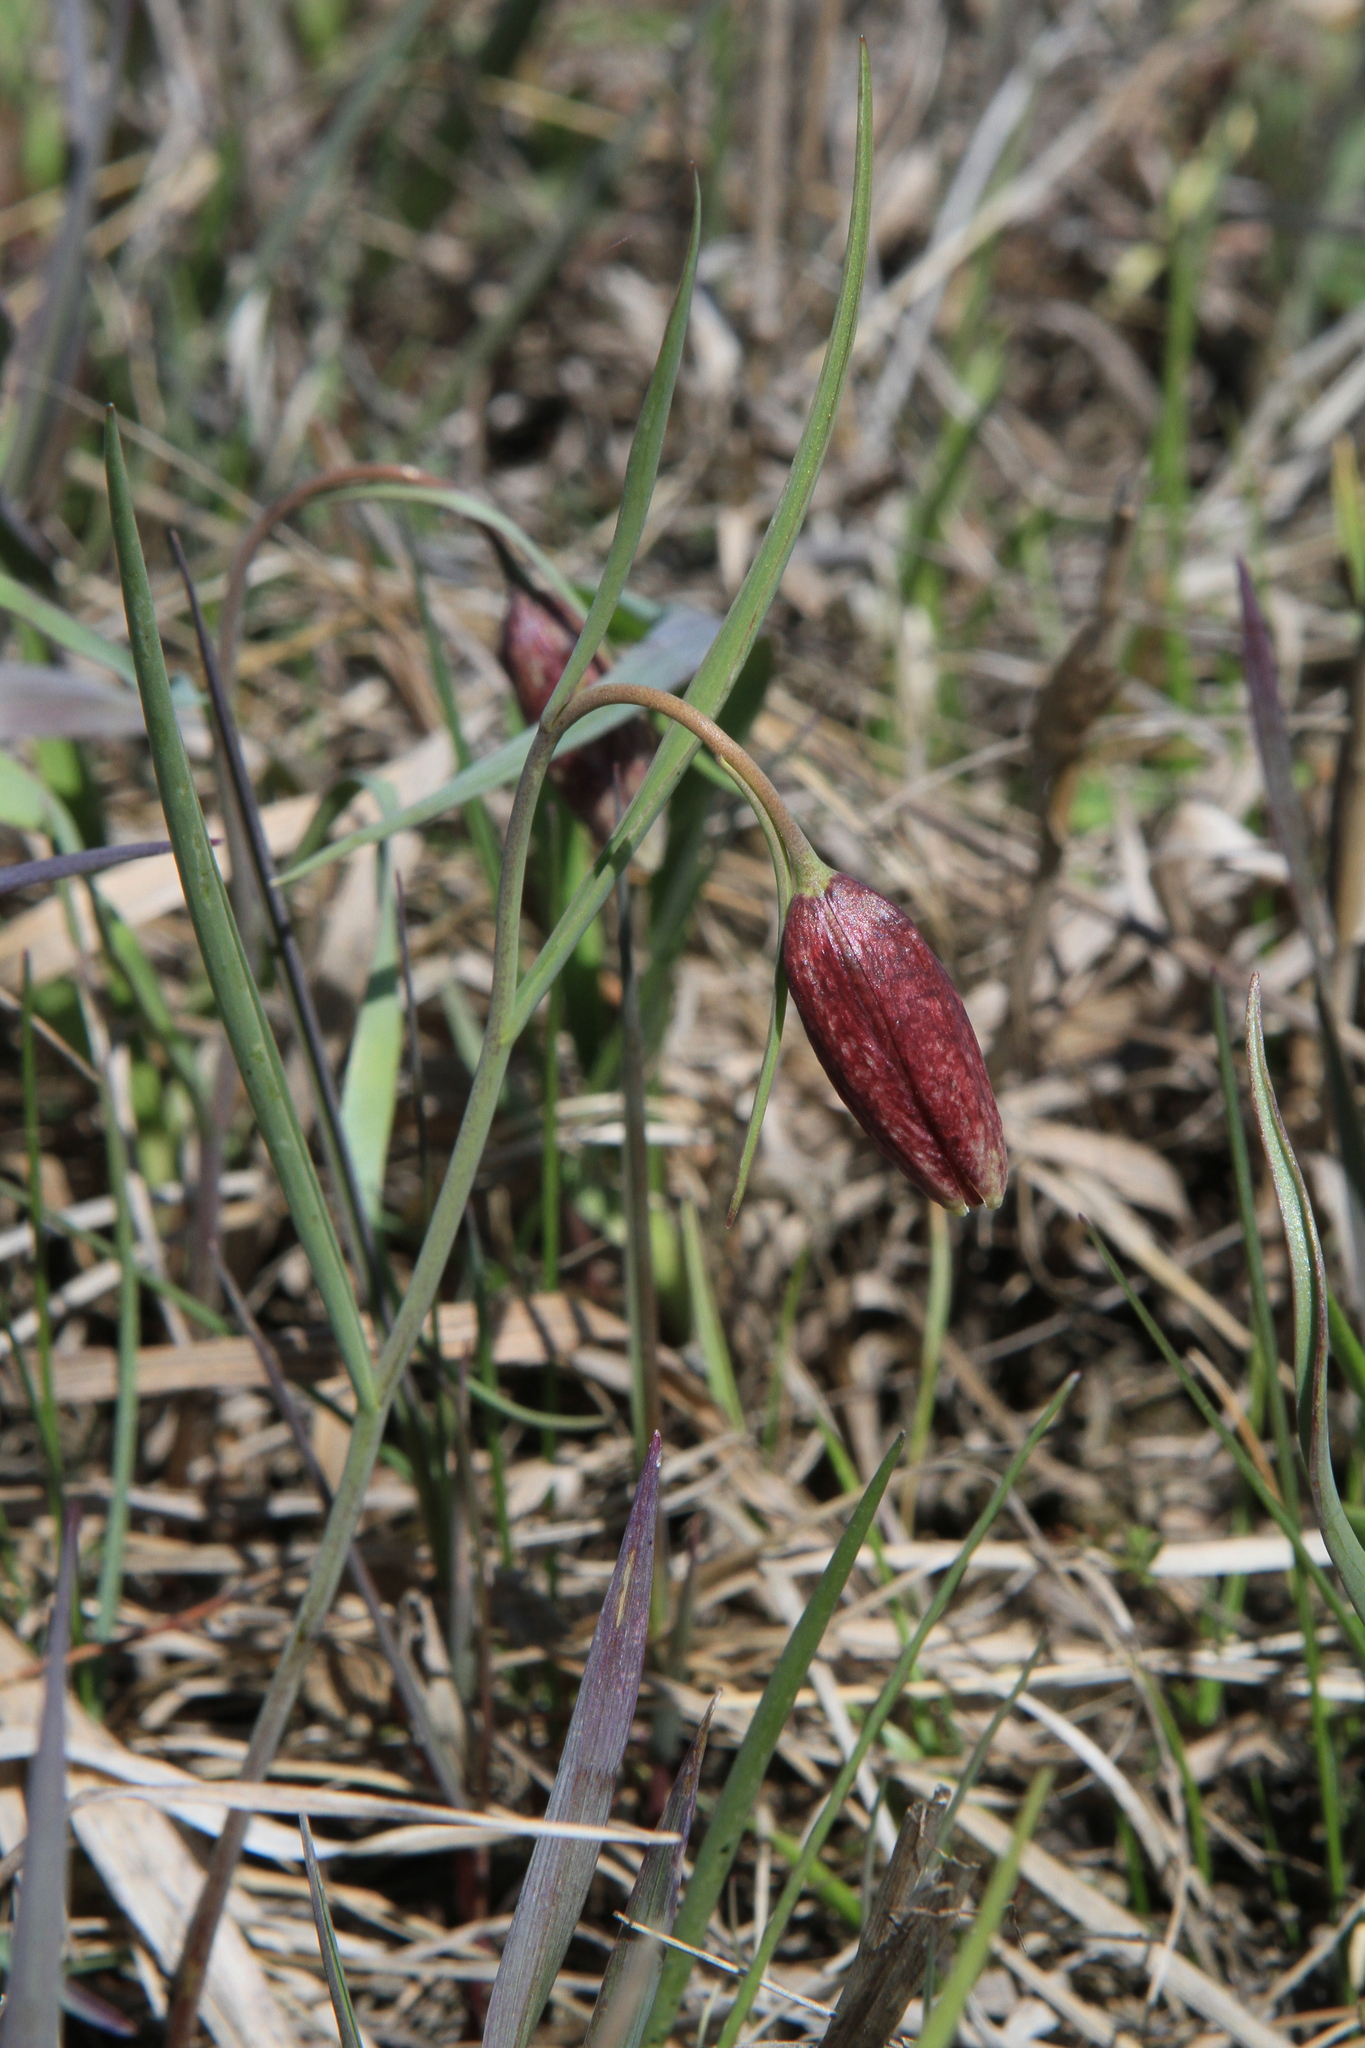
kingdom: Plantae
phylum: Tracheophyta
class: Liliopsida
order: Liliales
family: Liliaceae
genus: Fritillaria
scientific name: Fritillaria meleagroides
